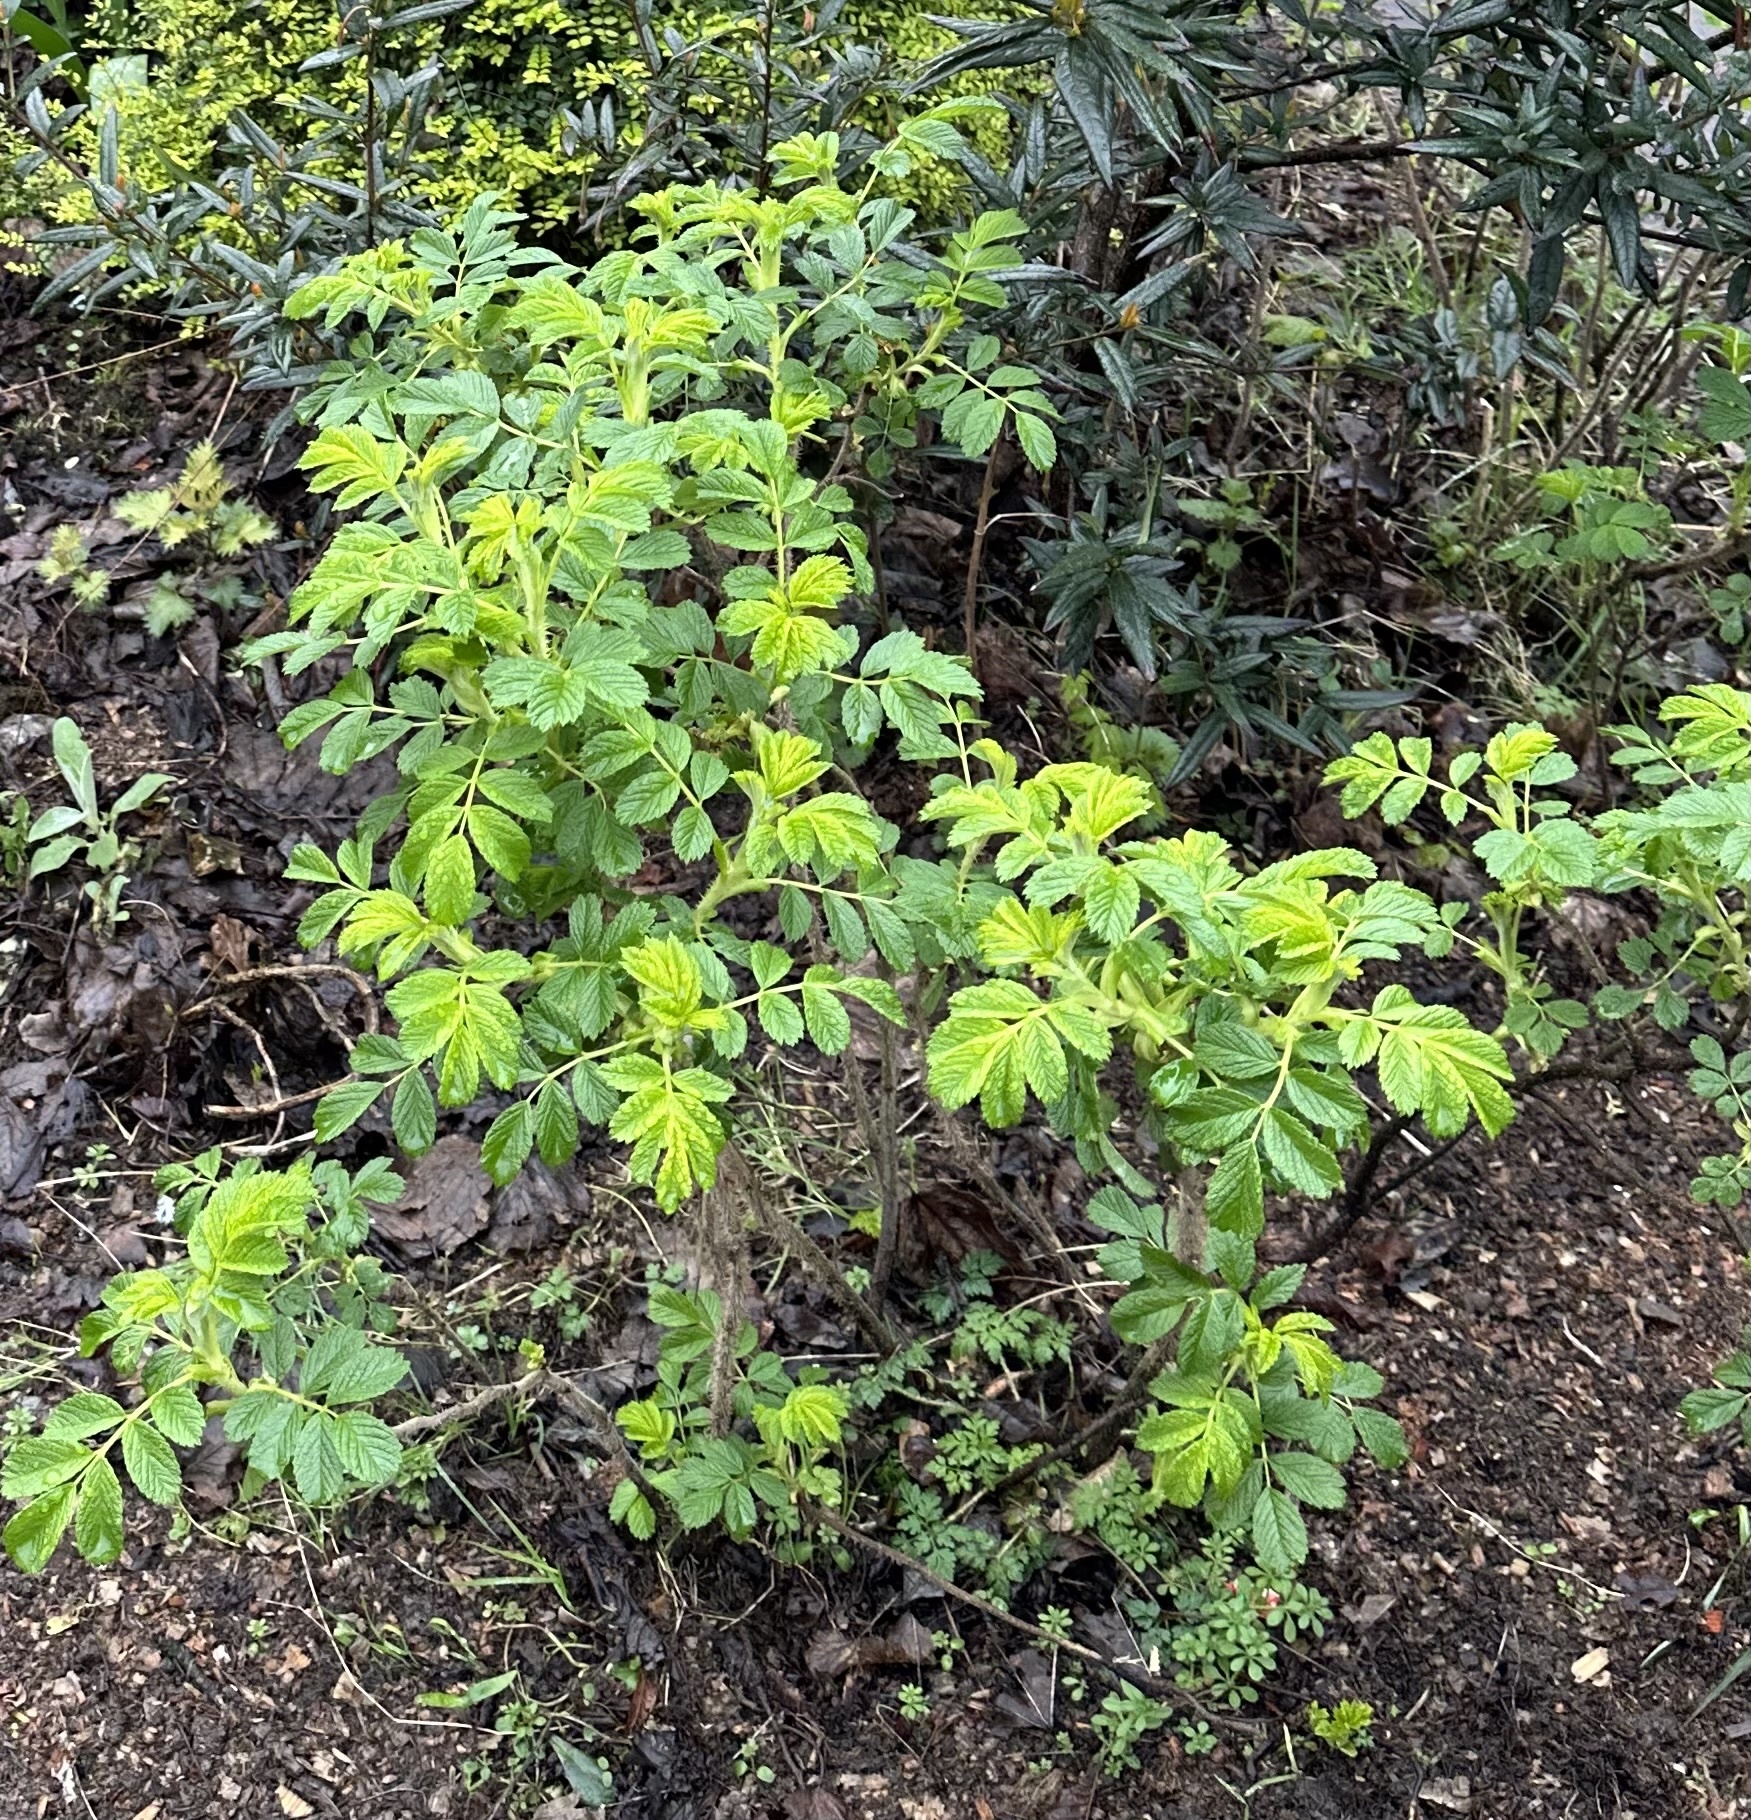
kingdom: Plantae
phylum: Tracheophyta
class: Magnoliopsida
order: Rosales
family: Rosaceae
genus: Rosa
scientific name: Rosa rugosa
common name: Japanese rose
